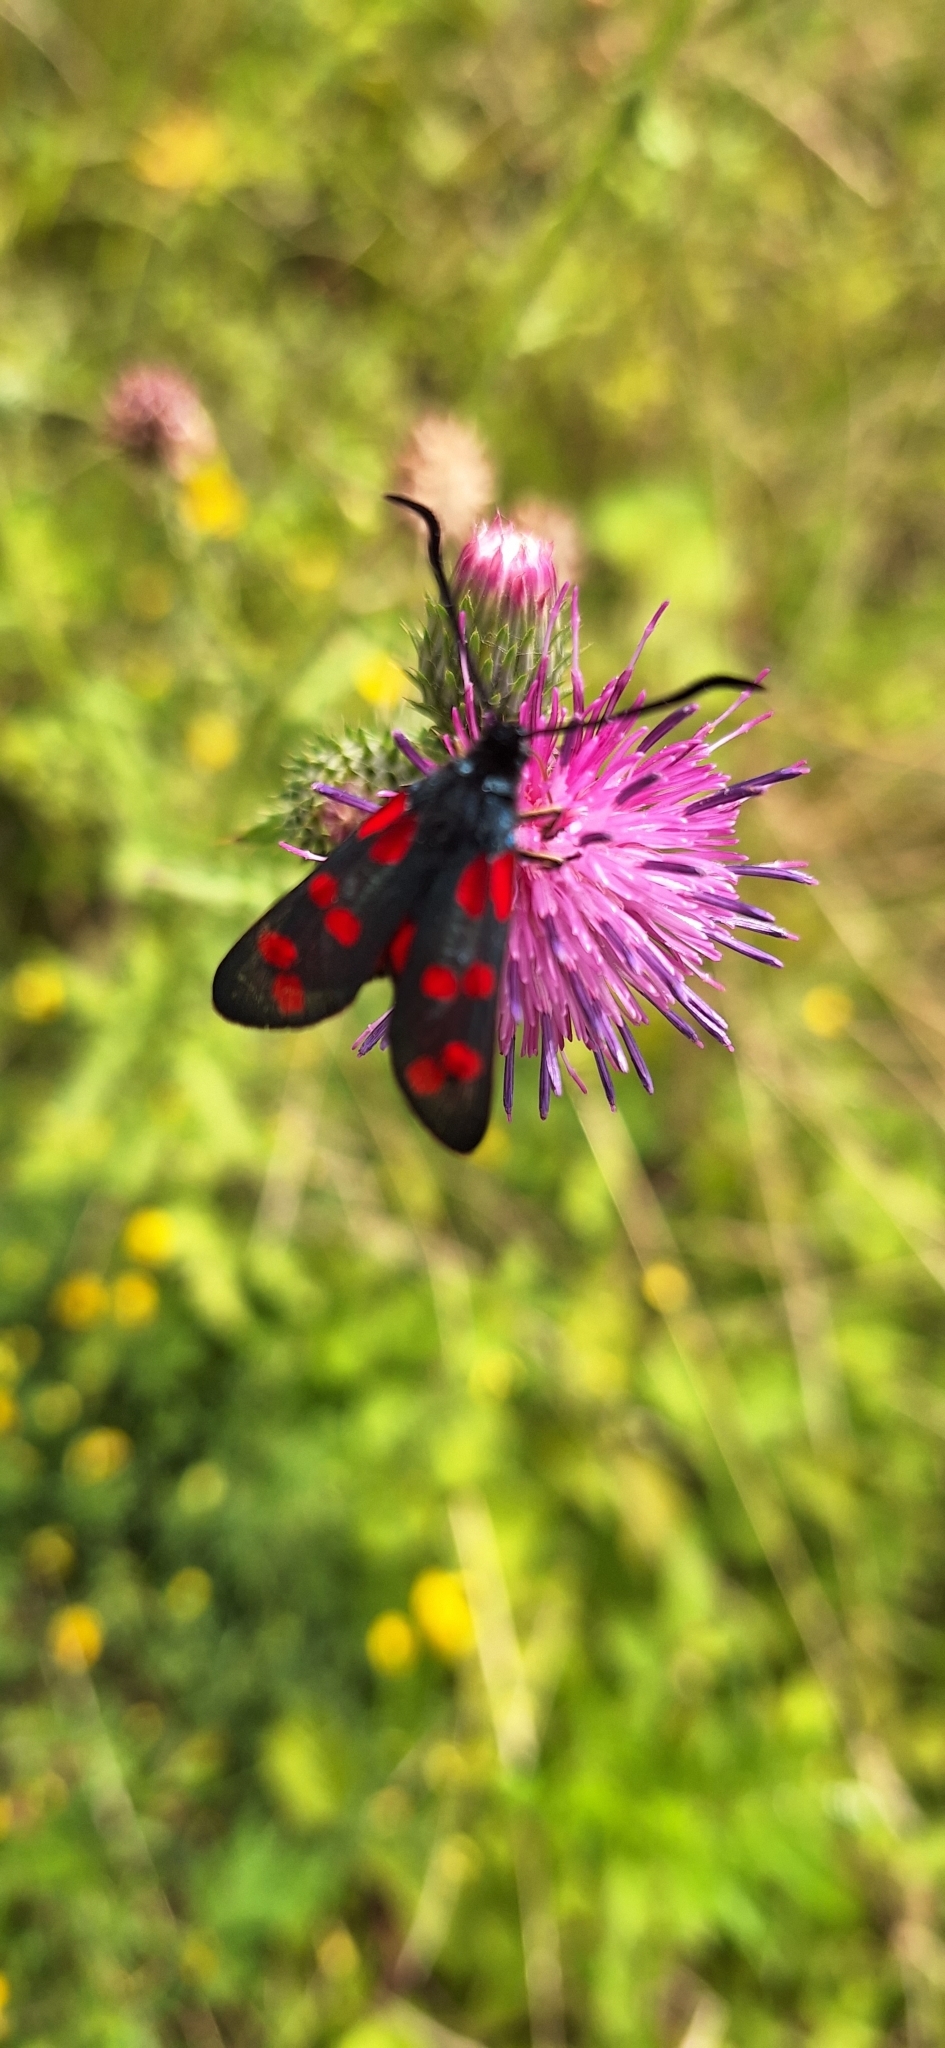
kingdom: Animalia
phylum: Arthropoda
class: Insecta
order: Lepidoptera
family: Zygaenidae
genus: Zygaena
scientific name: Zygaena filipendulae
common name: Six-spot burnet
